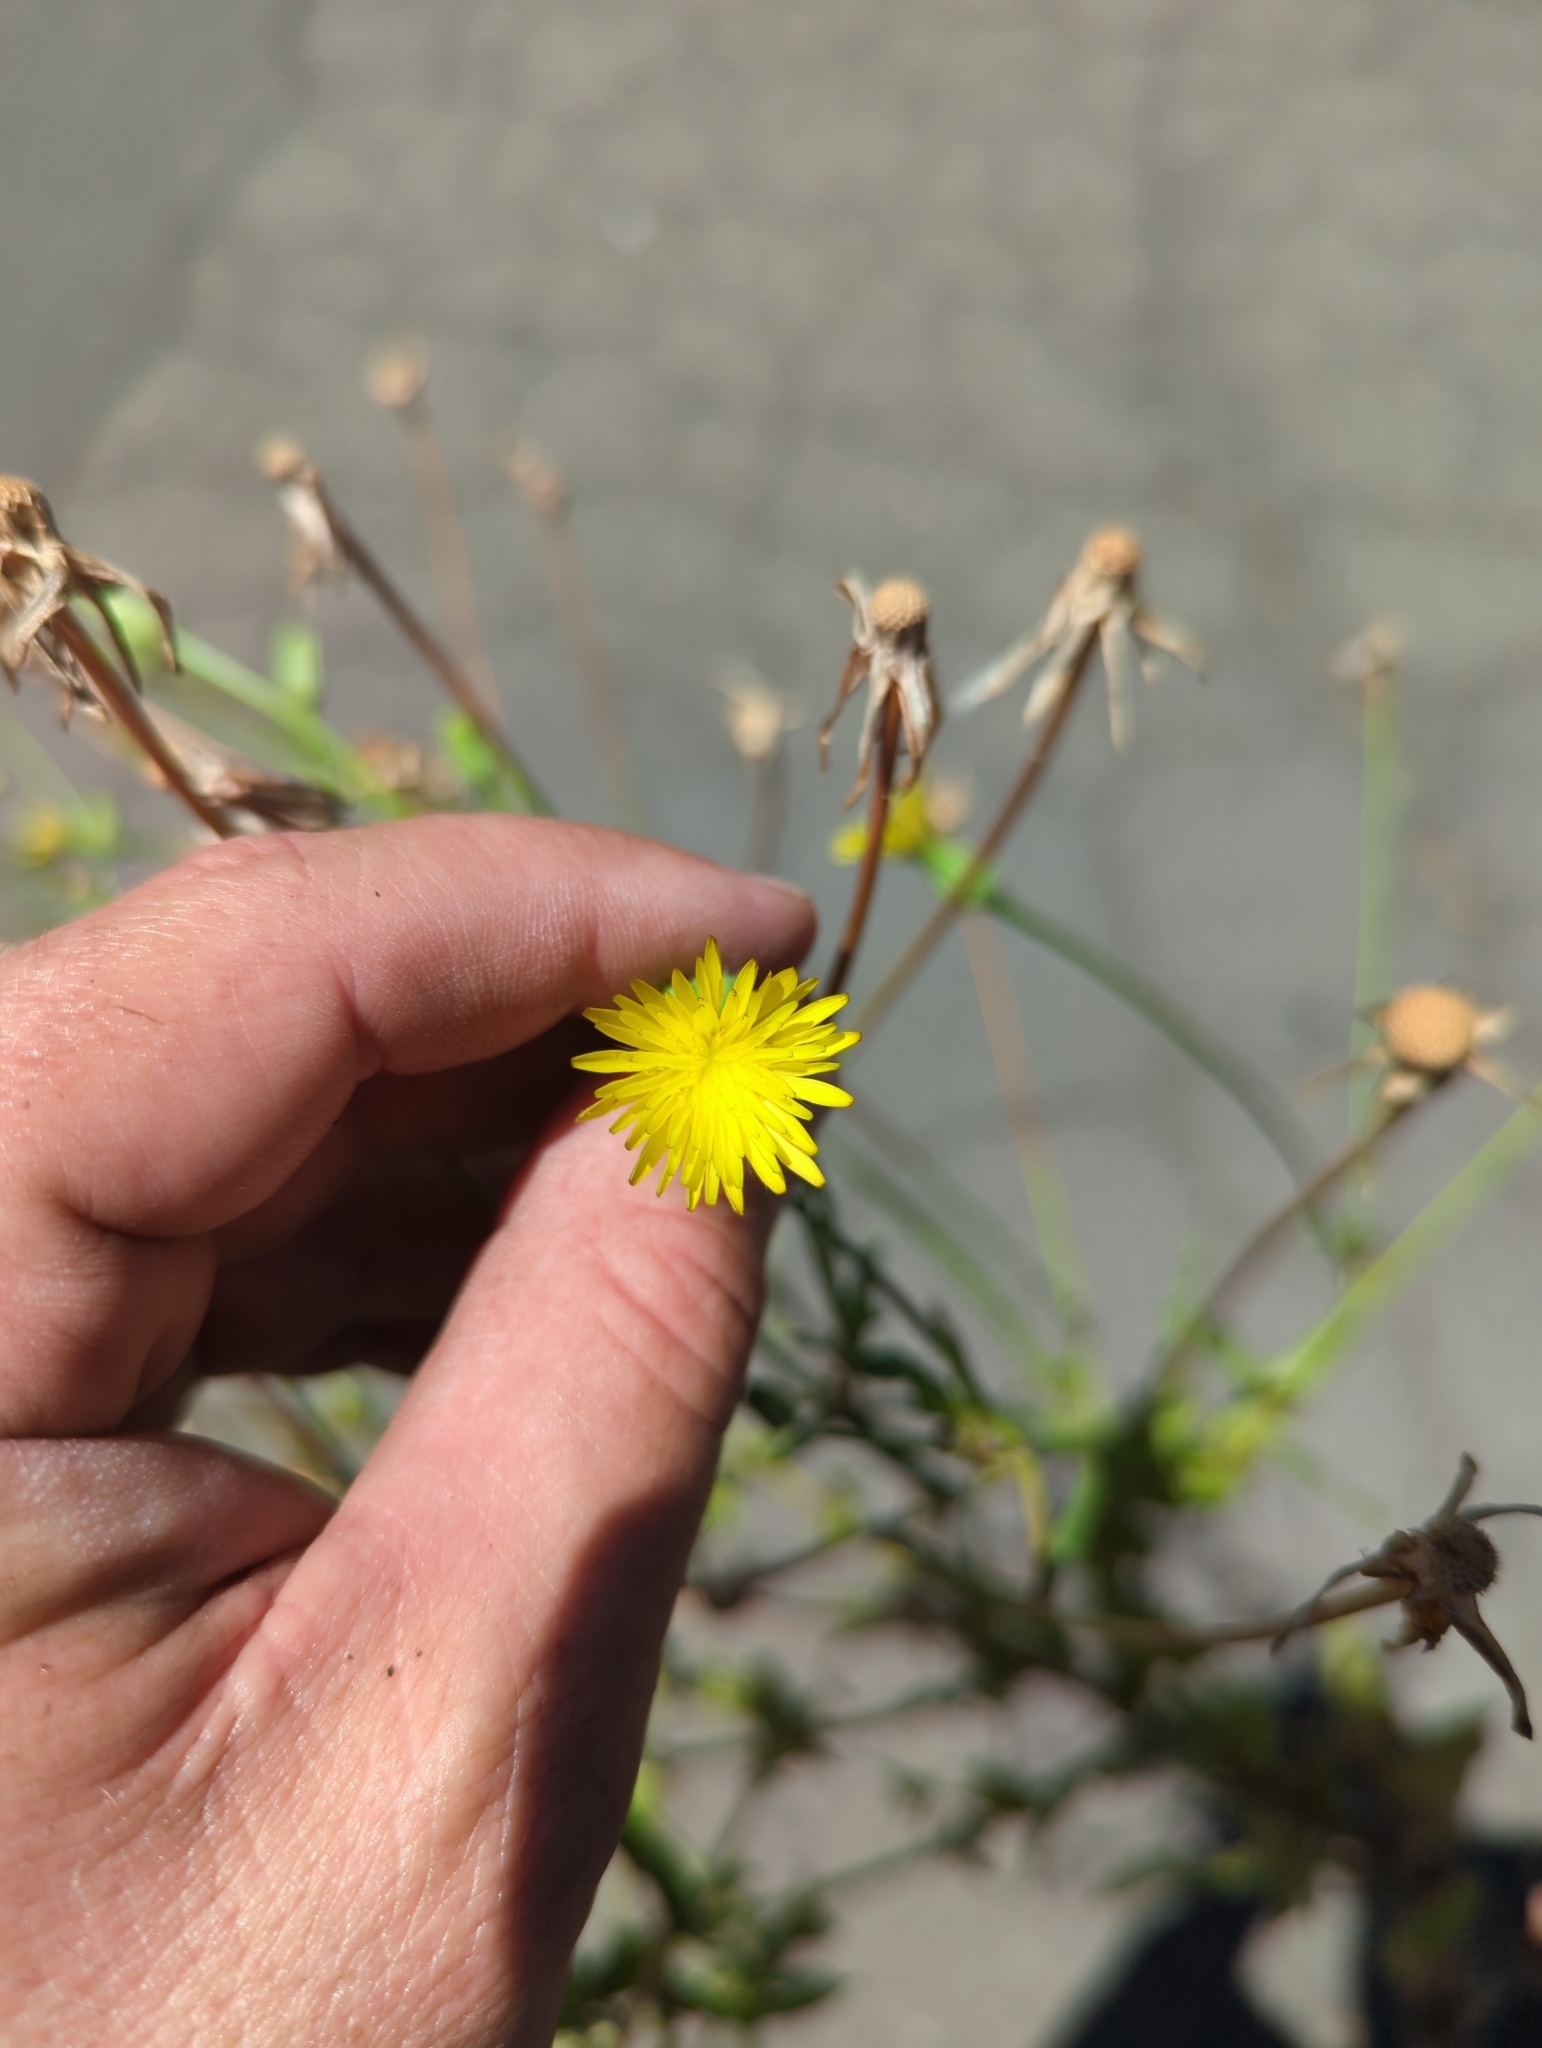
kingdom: Plantae
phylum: Tracheophyta
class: Magnoliopsida
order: Asterales
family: Asteraceae
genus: Urospermum
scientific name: Urospermum picroides
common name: False hawkbit
